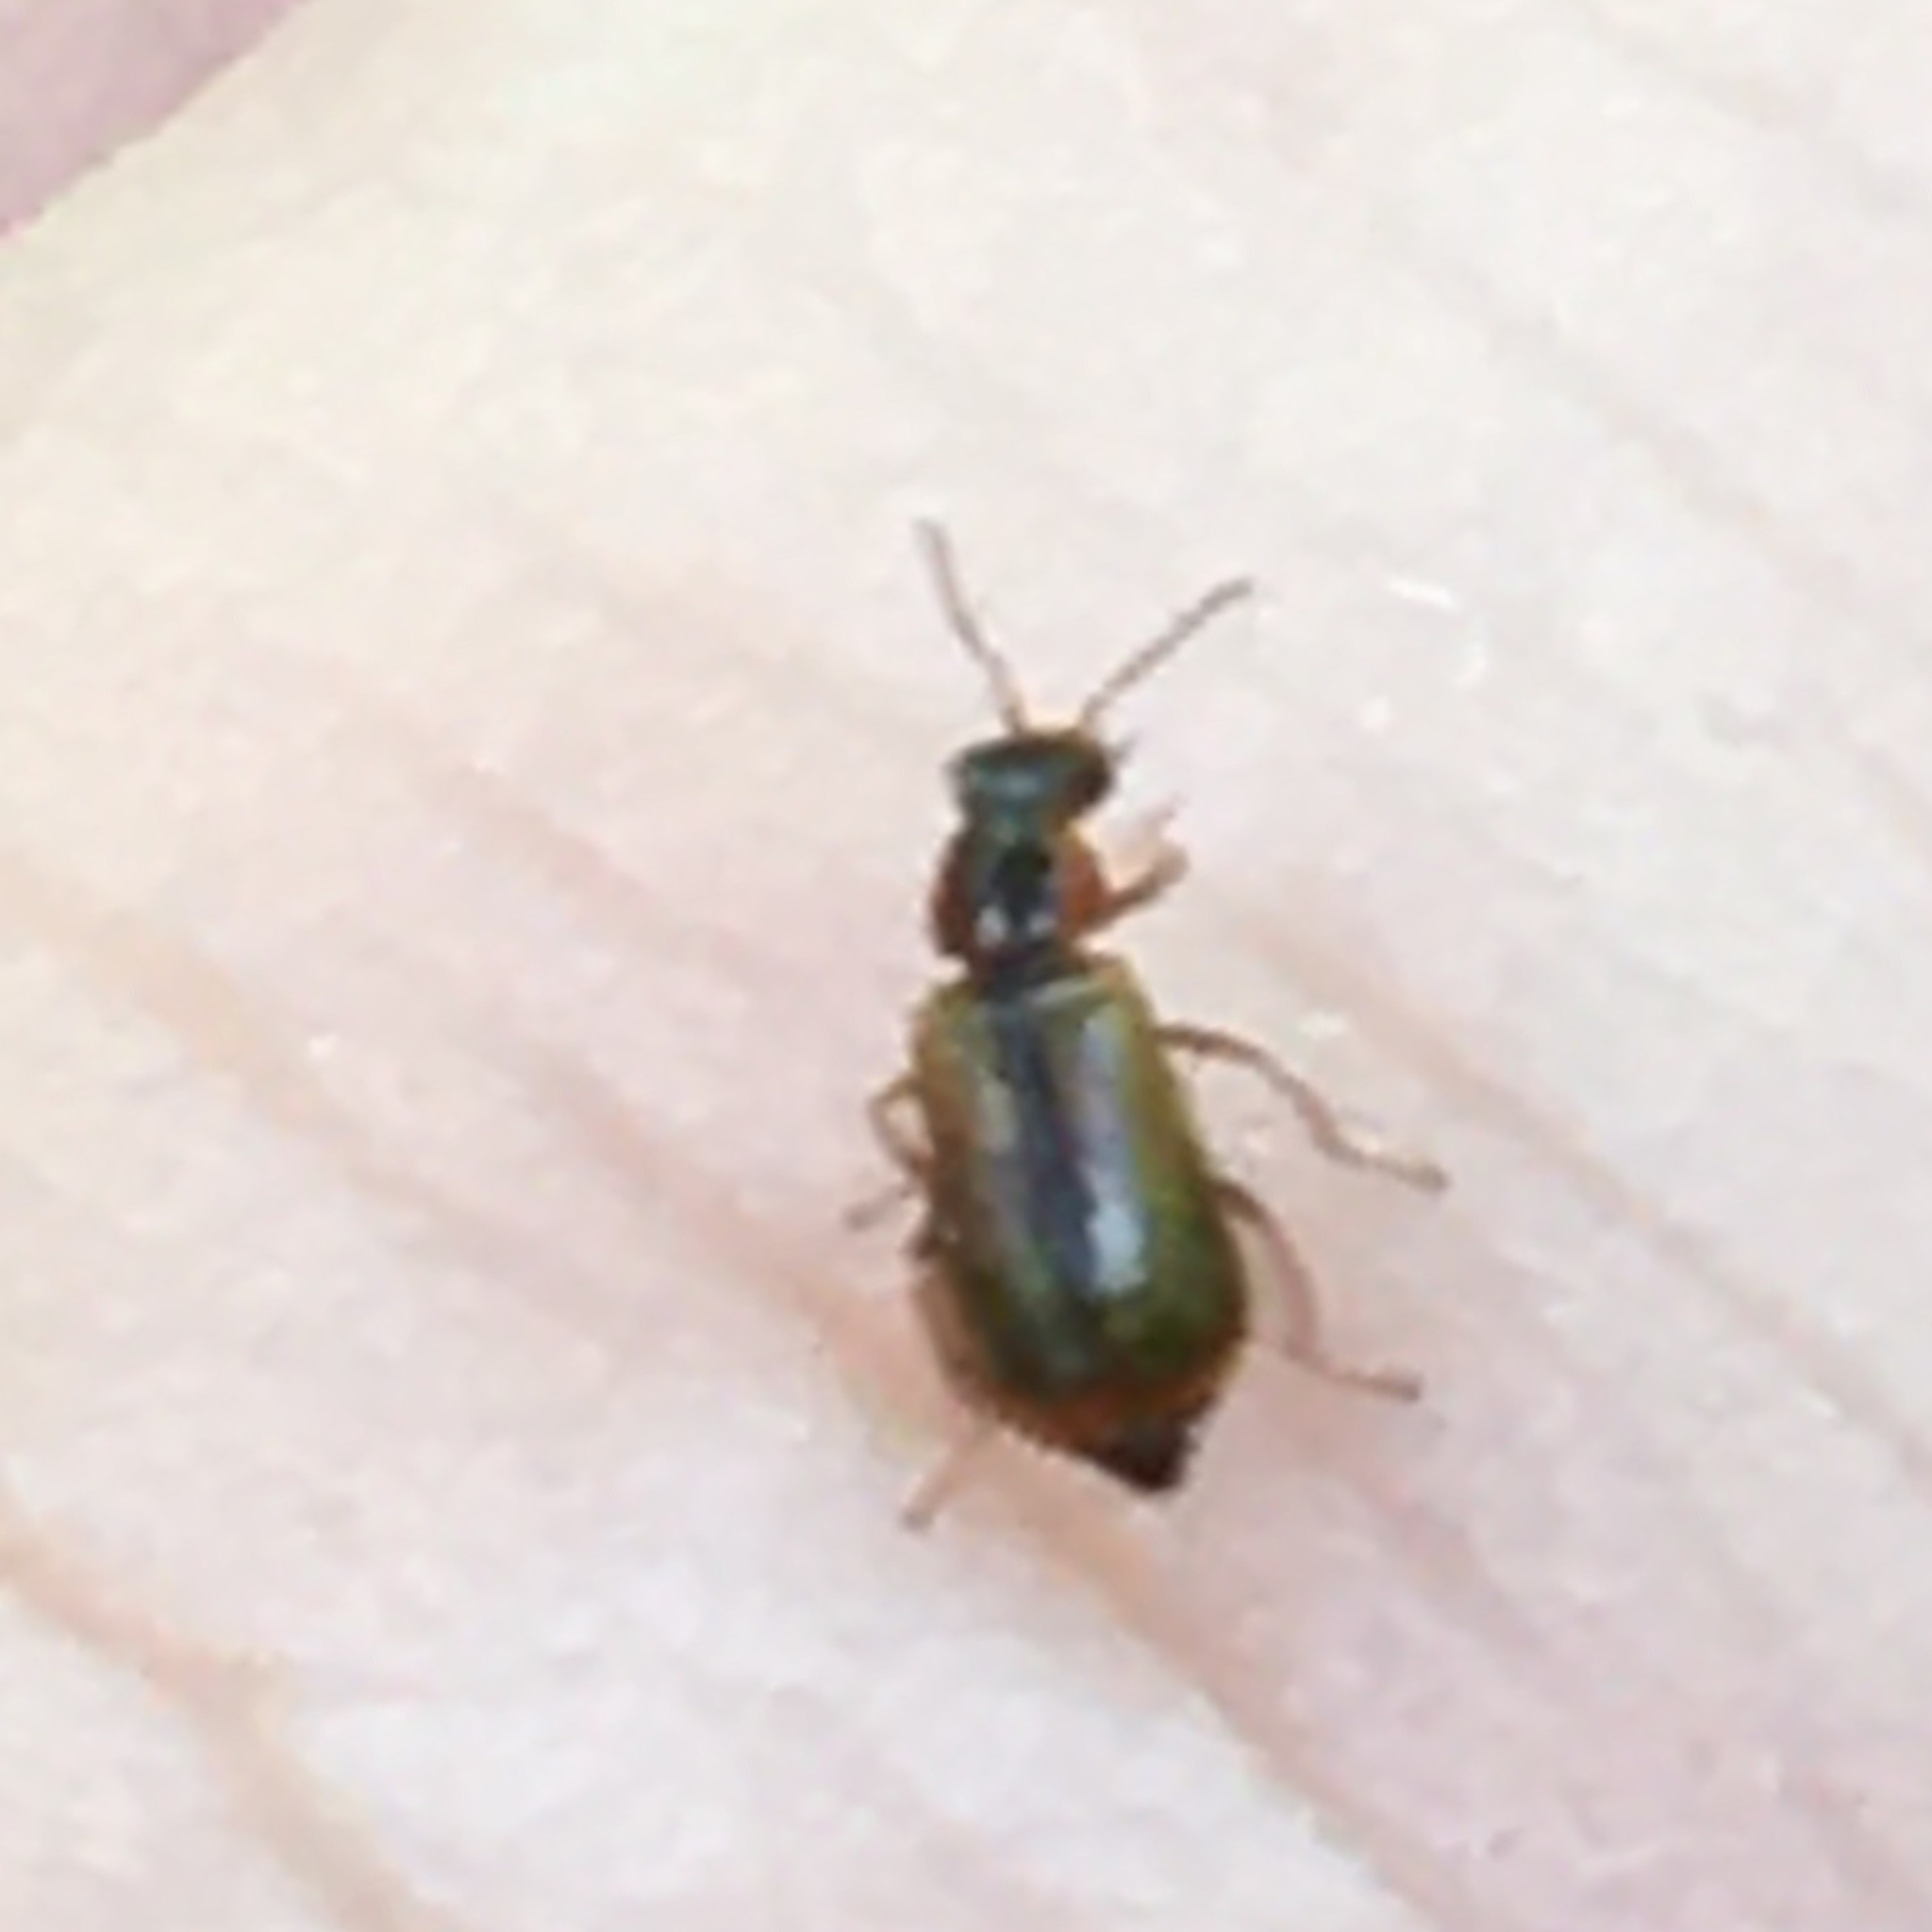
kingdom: Animalia
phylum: Arthropoda
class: Insecta
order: Coleoptera
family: Malachiidae
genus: Attalus
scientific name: Attalus
